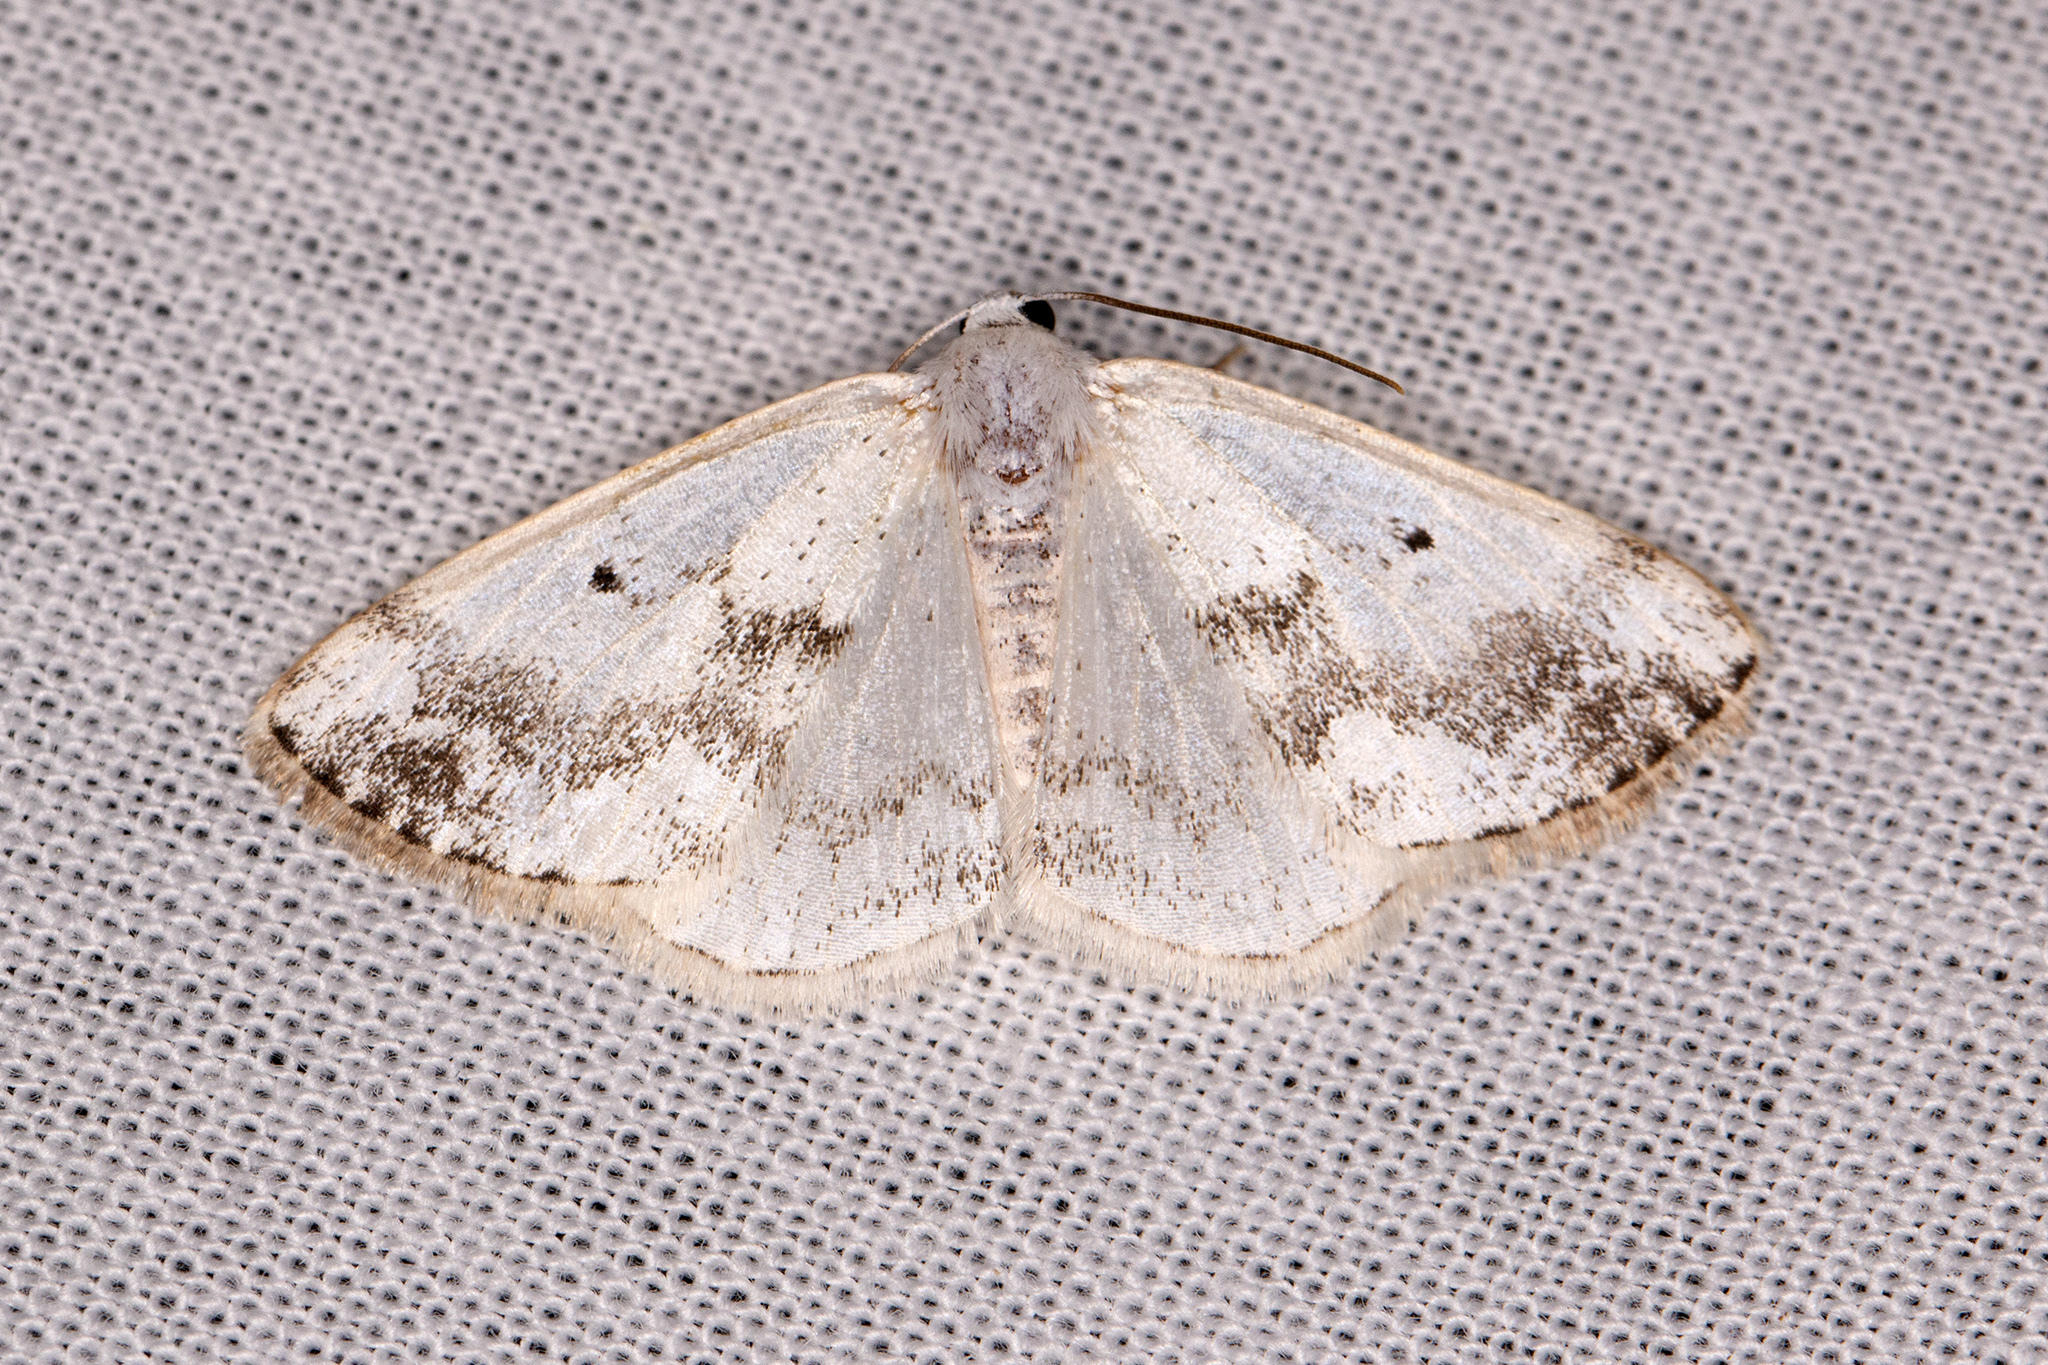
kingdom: Animalia
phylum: Arthropoda
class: Insecta
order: Lepidoptera
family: Geometridae
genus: Lomographa
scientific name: Lomographa temerata
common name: Clouded silver
